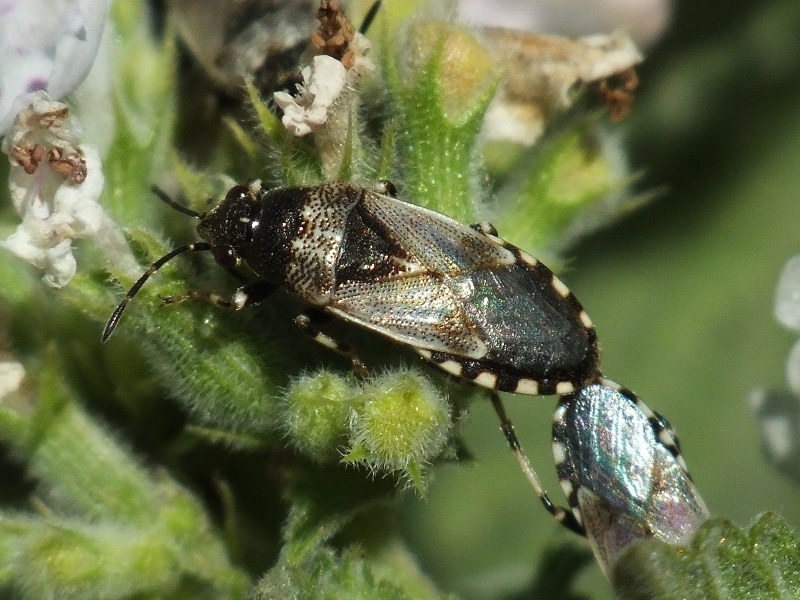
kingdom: Animalia
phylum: Arthropoda
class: Insecta
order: Hemiptera
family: Heterogastridae
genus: Heterogaster
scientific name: Heterogaster cathariae
